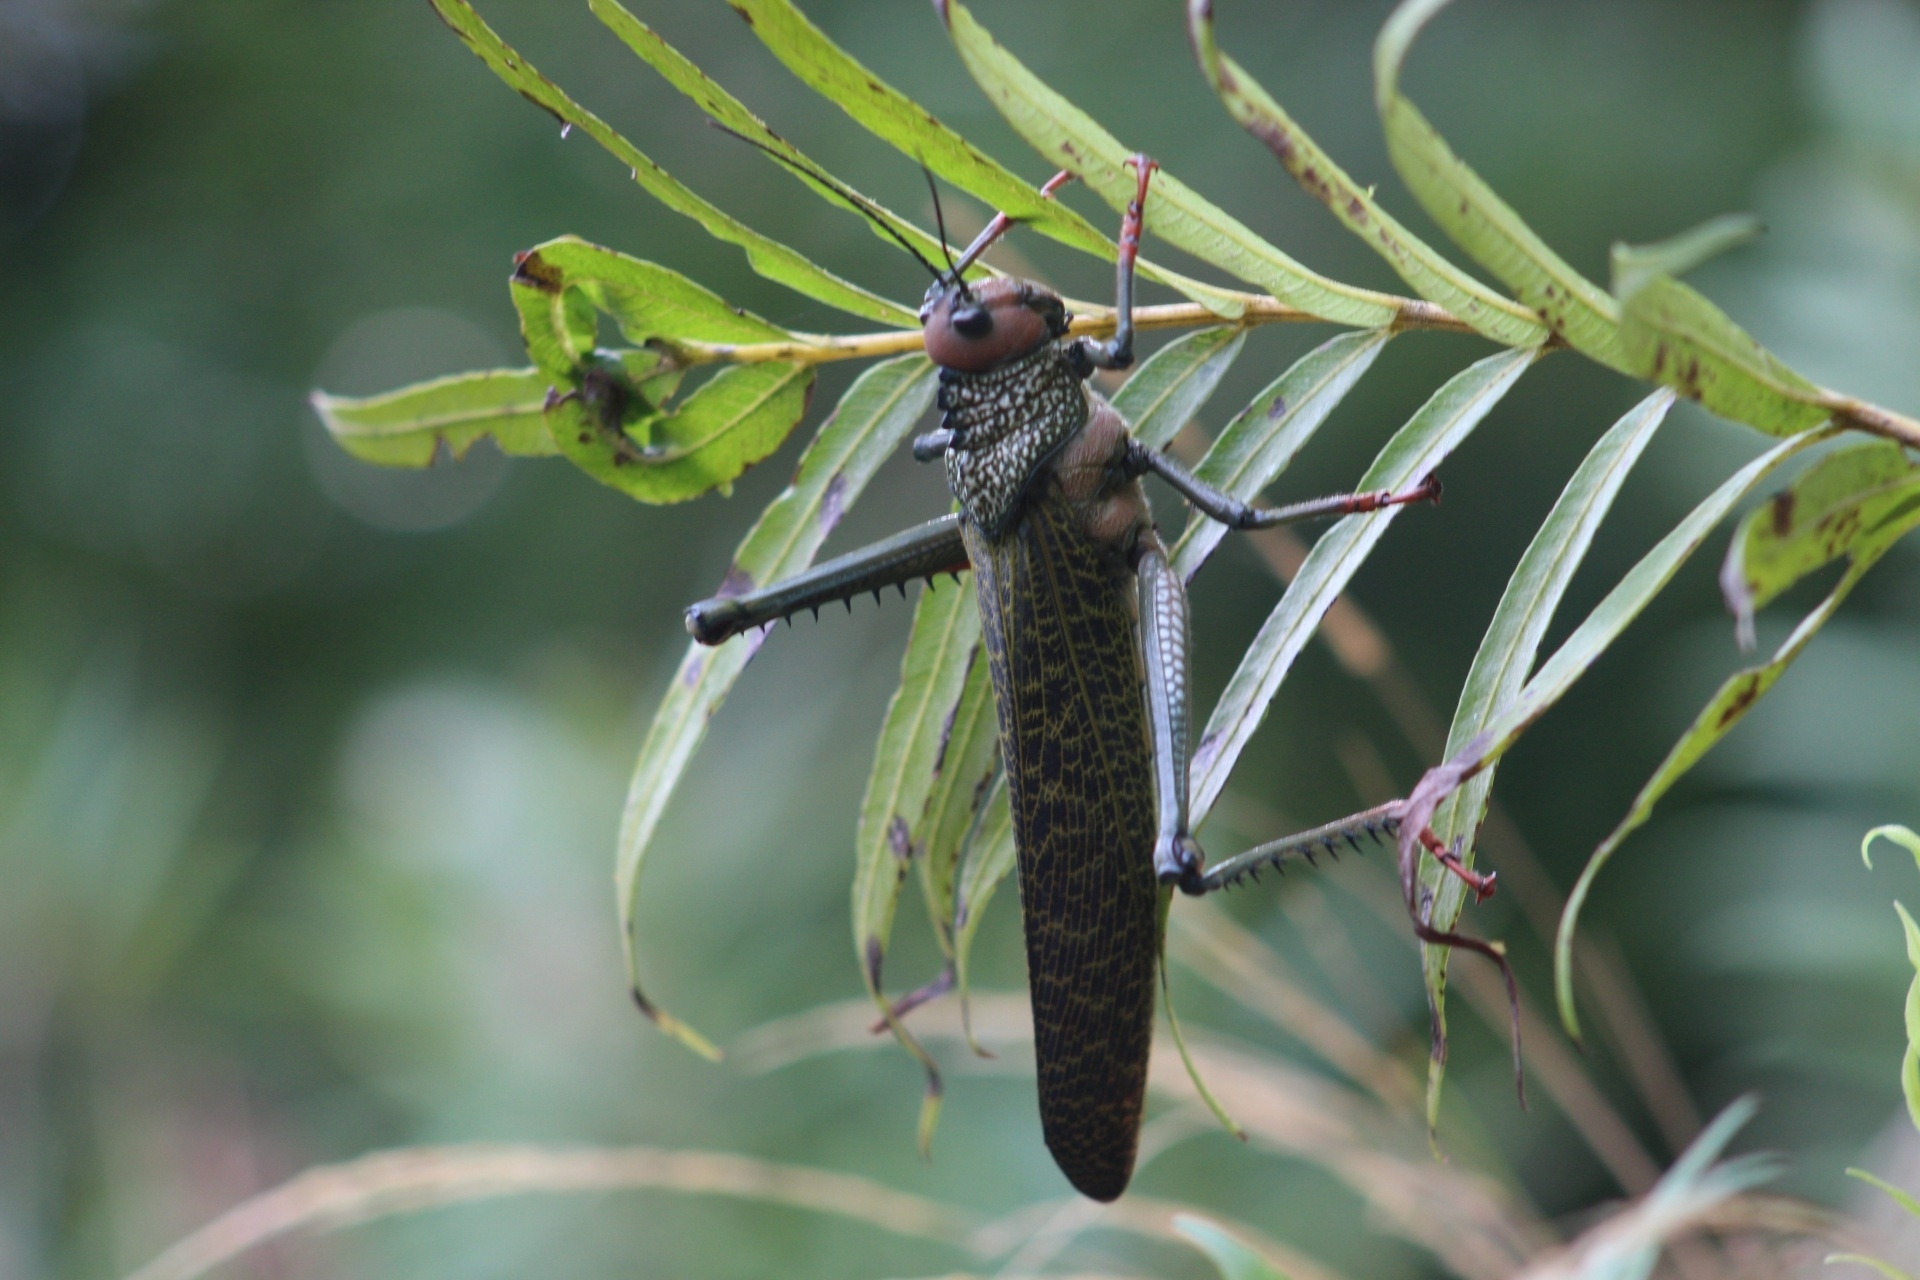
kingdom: Animalia
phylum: Arthropoda
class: Insecta
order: Orthoptera
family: Romaleidae
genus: Tropidacris
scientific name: Tropidacris cristata
